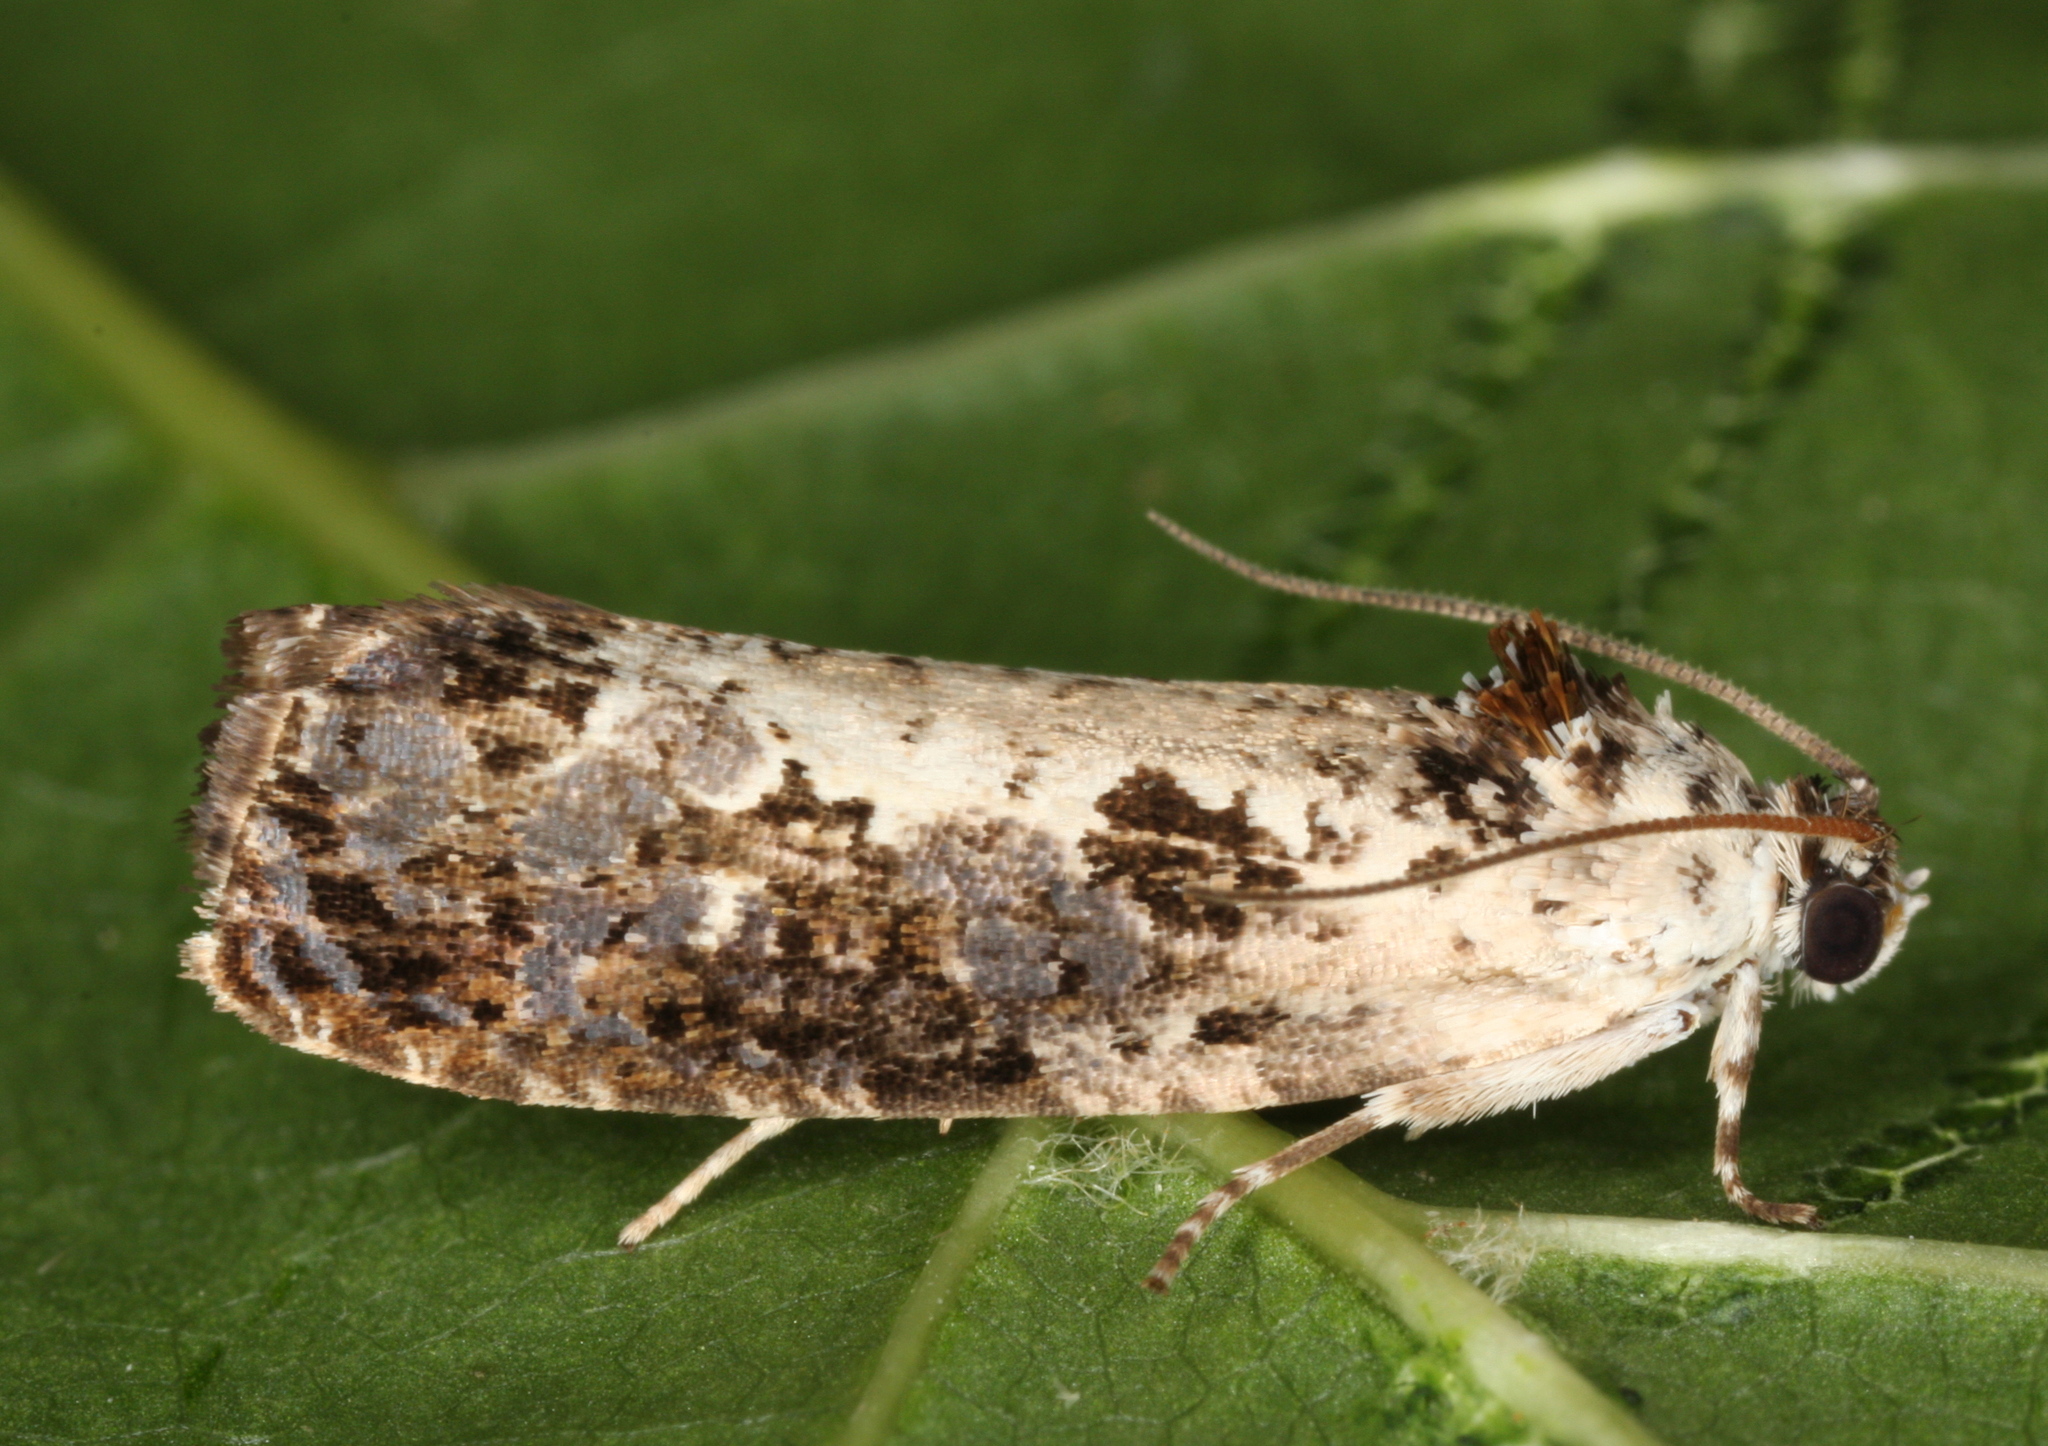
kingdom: Animalia
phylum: Arthropoda
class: Insecta
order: Lepidoptera
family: Tortricidae
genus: Hedya
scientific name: Hedya salicella
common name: Large tortricid moth
